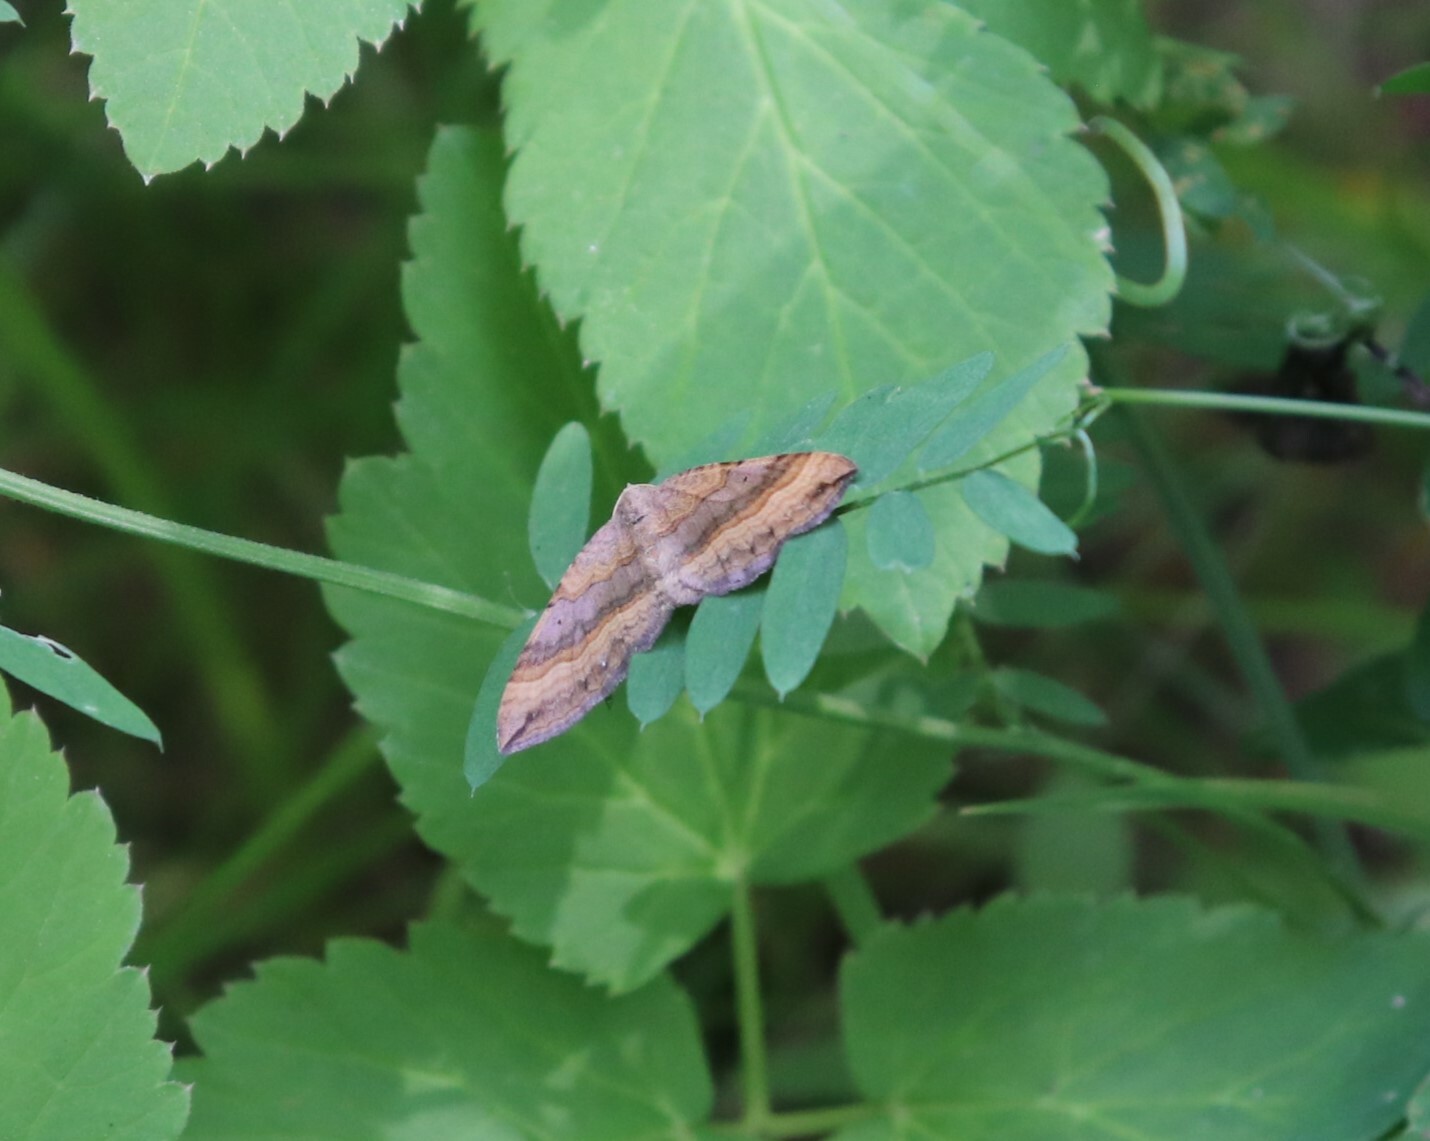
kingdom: Animalia
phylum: Arthropoda
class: Insecta
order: Lepidoptera
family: Geometridae
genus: Scotopteryx
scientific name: Scotopteryx chenopodiata
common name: Shaded broad-bar
